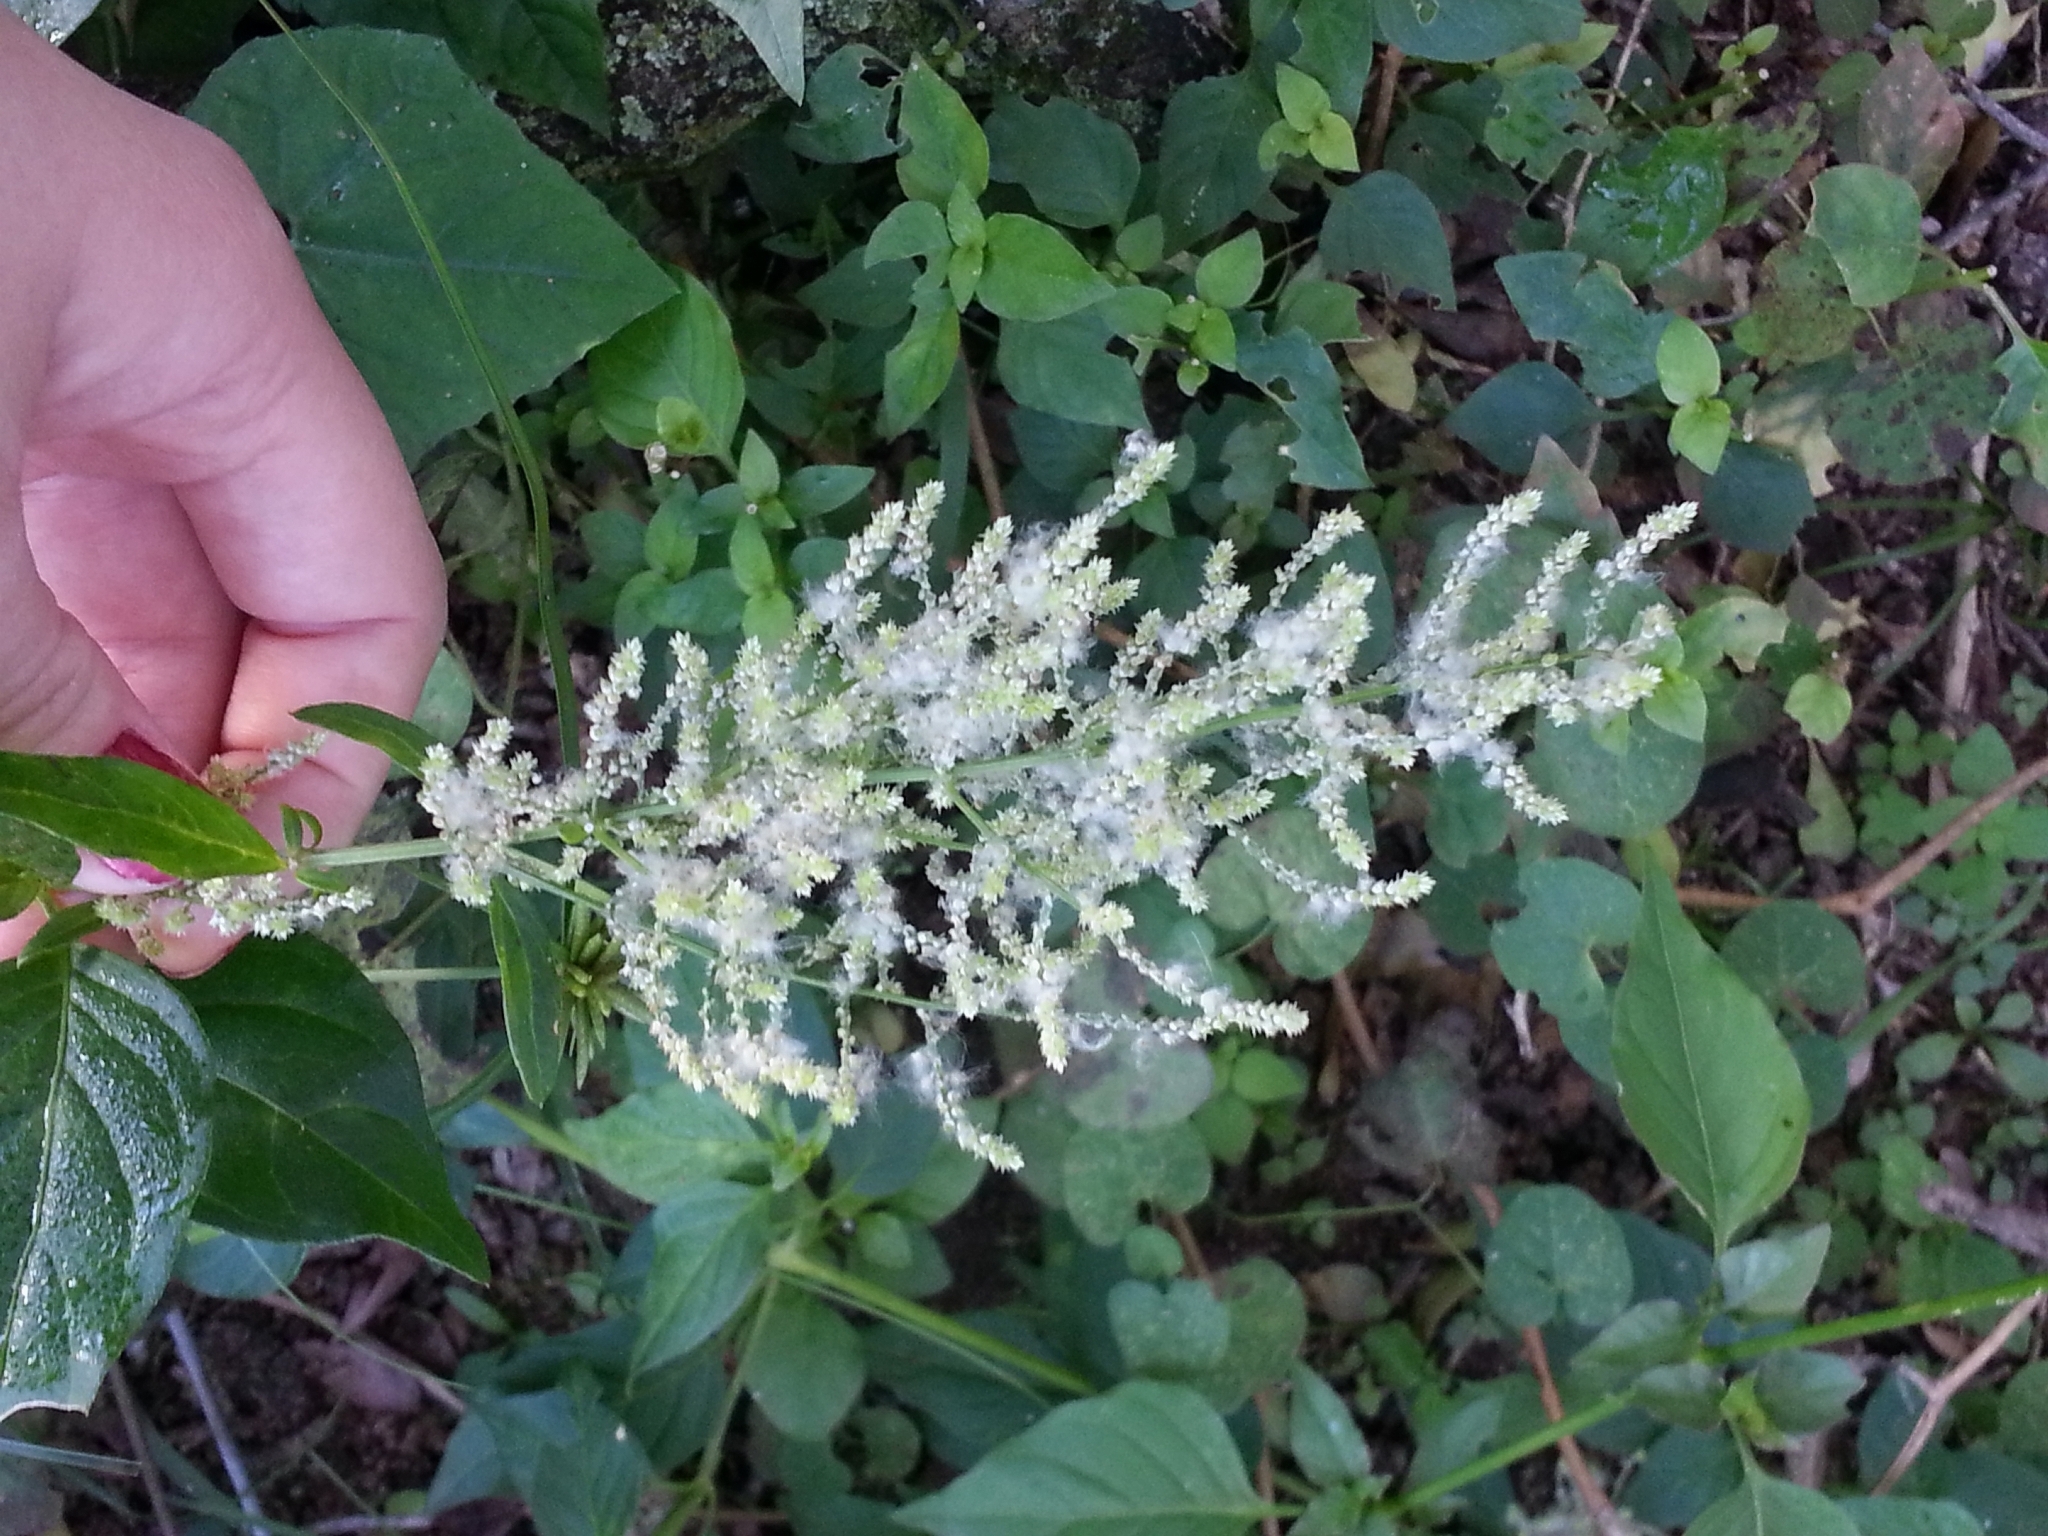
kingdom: Plantae
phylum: Tracheophyta
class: Magnoliopsida
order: Caryophyllales
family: Amaranthaceae
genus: Iresine
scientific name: Iresine diffusa
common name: Juba's-bush
